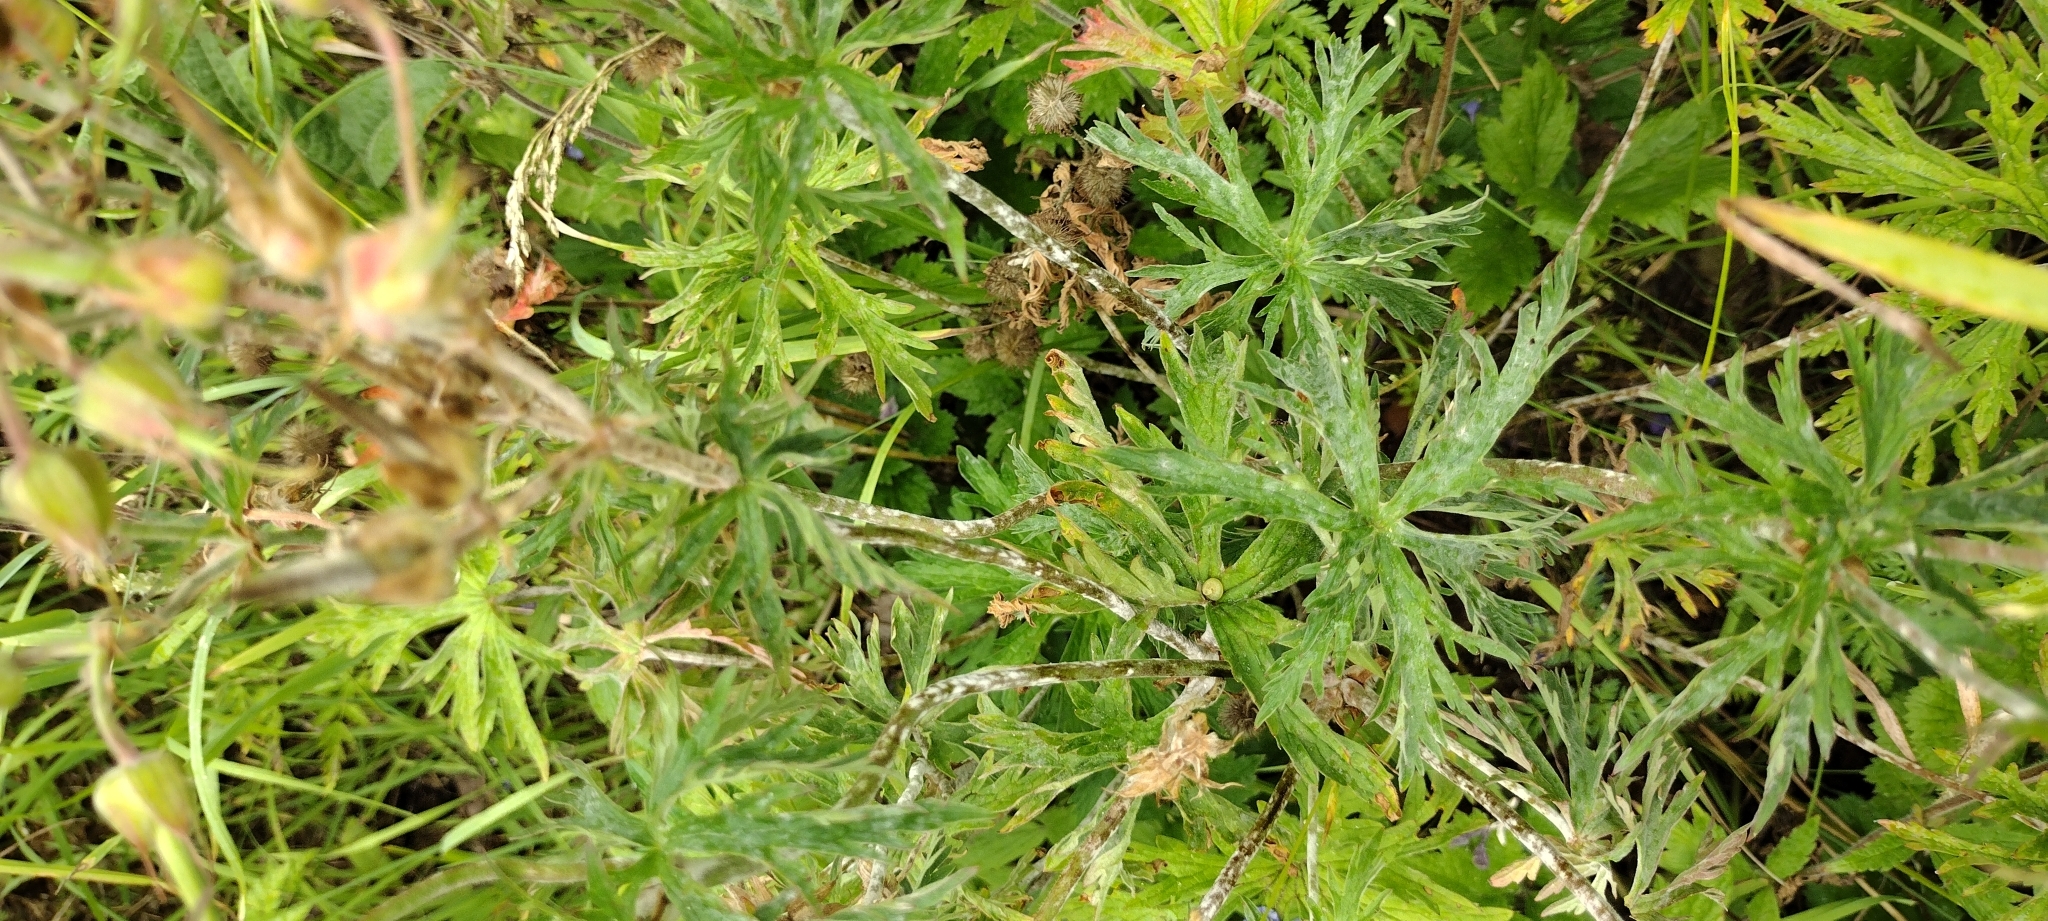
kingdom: Plantae
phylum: Tracheophyta
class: Magnoliopsida
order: Geraniales
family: Geraniaceae
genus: Geranium
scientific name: Geranium pratense
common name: Meadow crane's-bill
